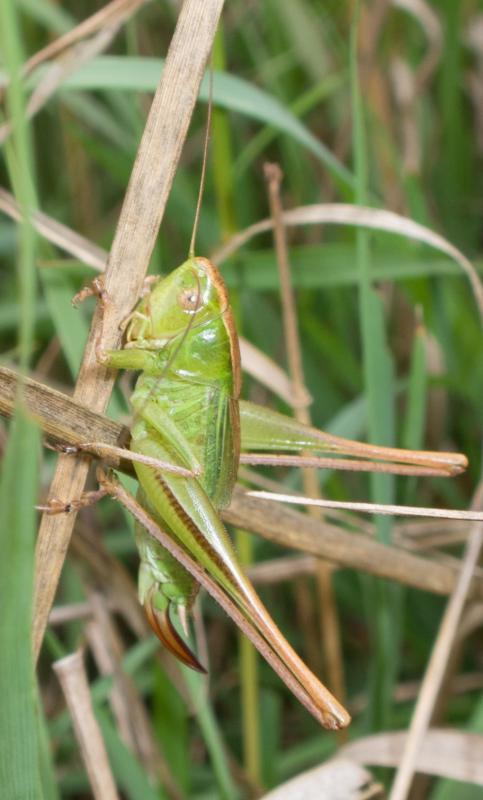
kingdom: Animalia
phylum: Arthropoda
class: Insecta
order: Orthoptera
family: Tettigoniidae
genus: Bicolorana
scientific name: Bicolorana bicolor
